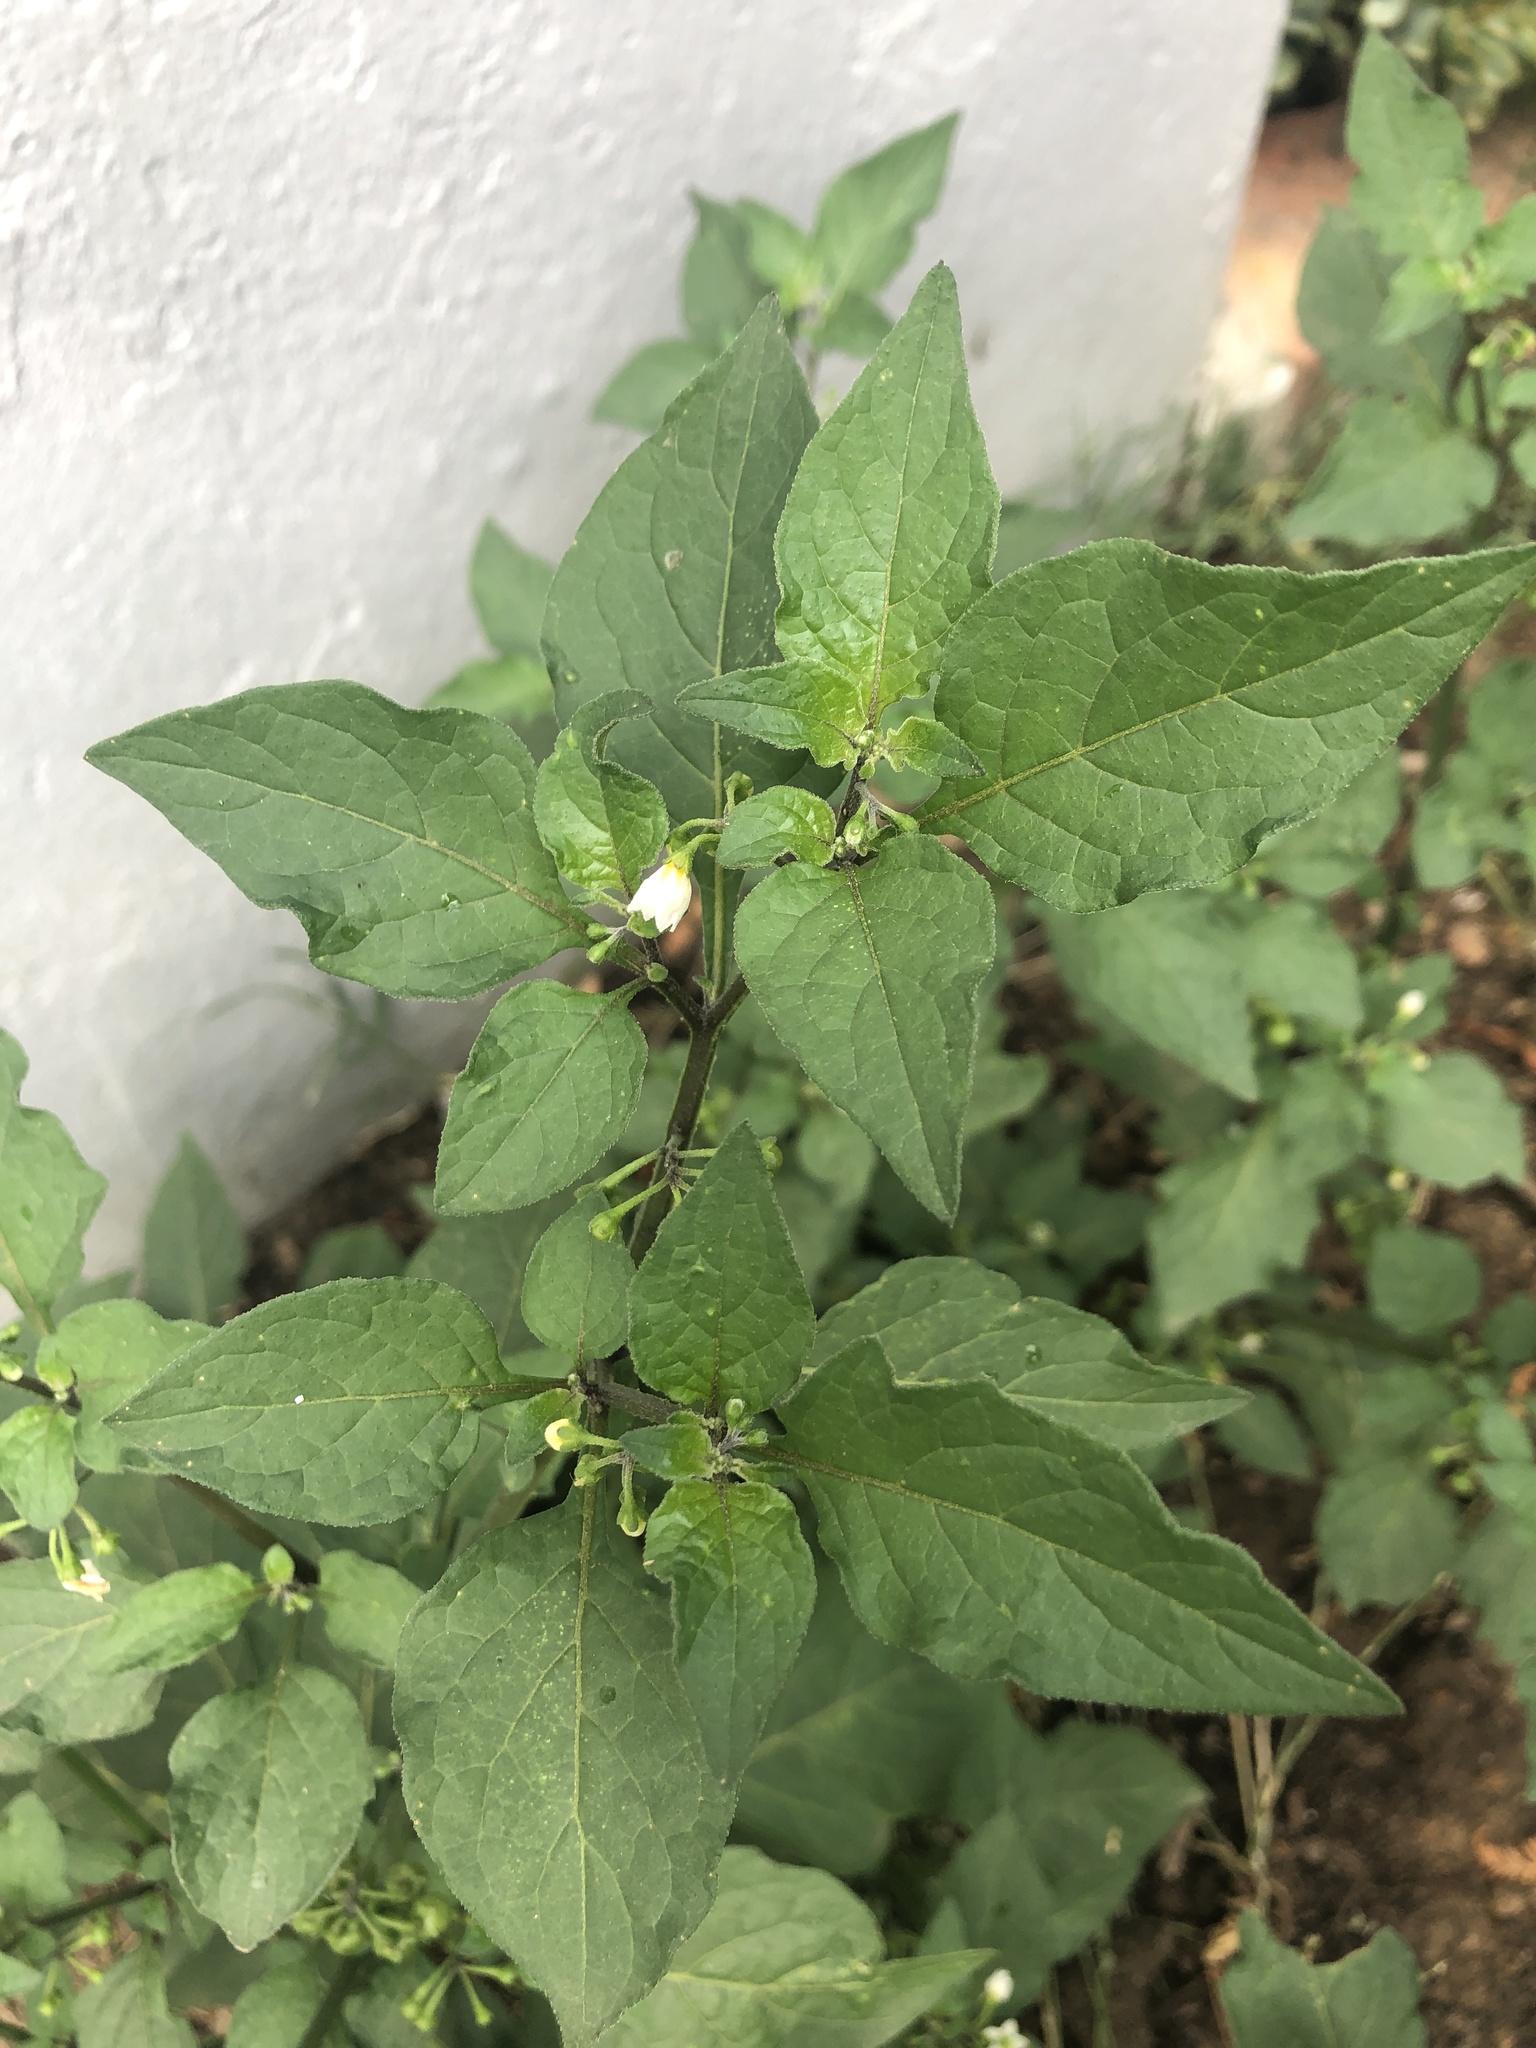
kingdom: Plantae
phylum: Tracheophyta
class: Magnoliopsida
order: Solanales
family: Solanaceae
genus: Solanum
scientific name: Solanum nigrum
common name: Black nightshade
